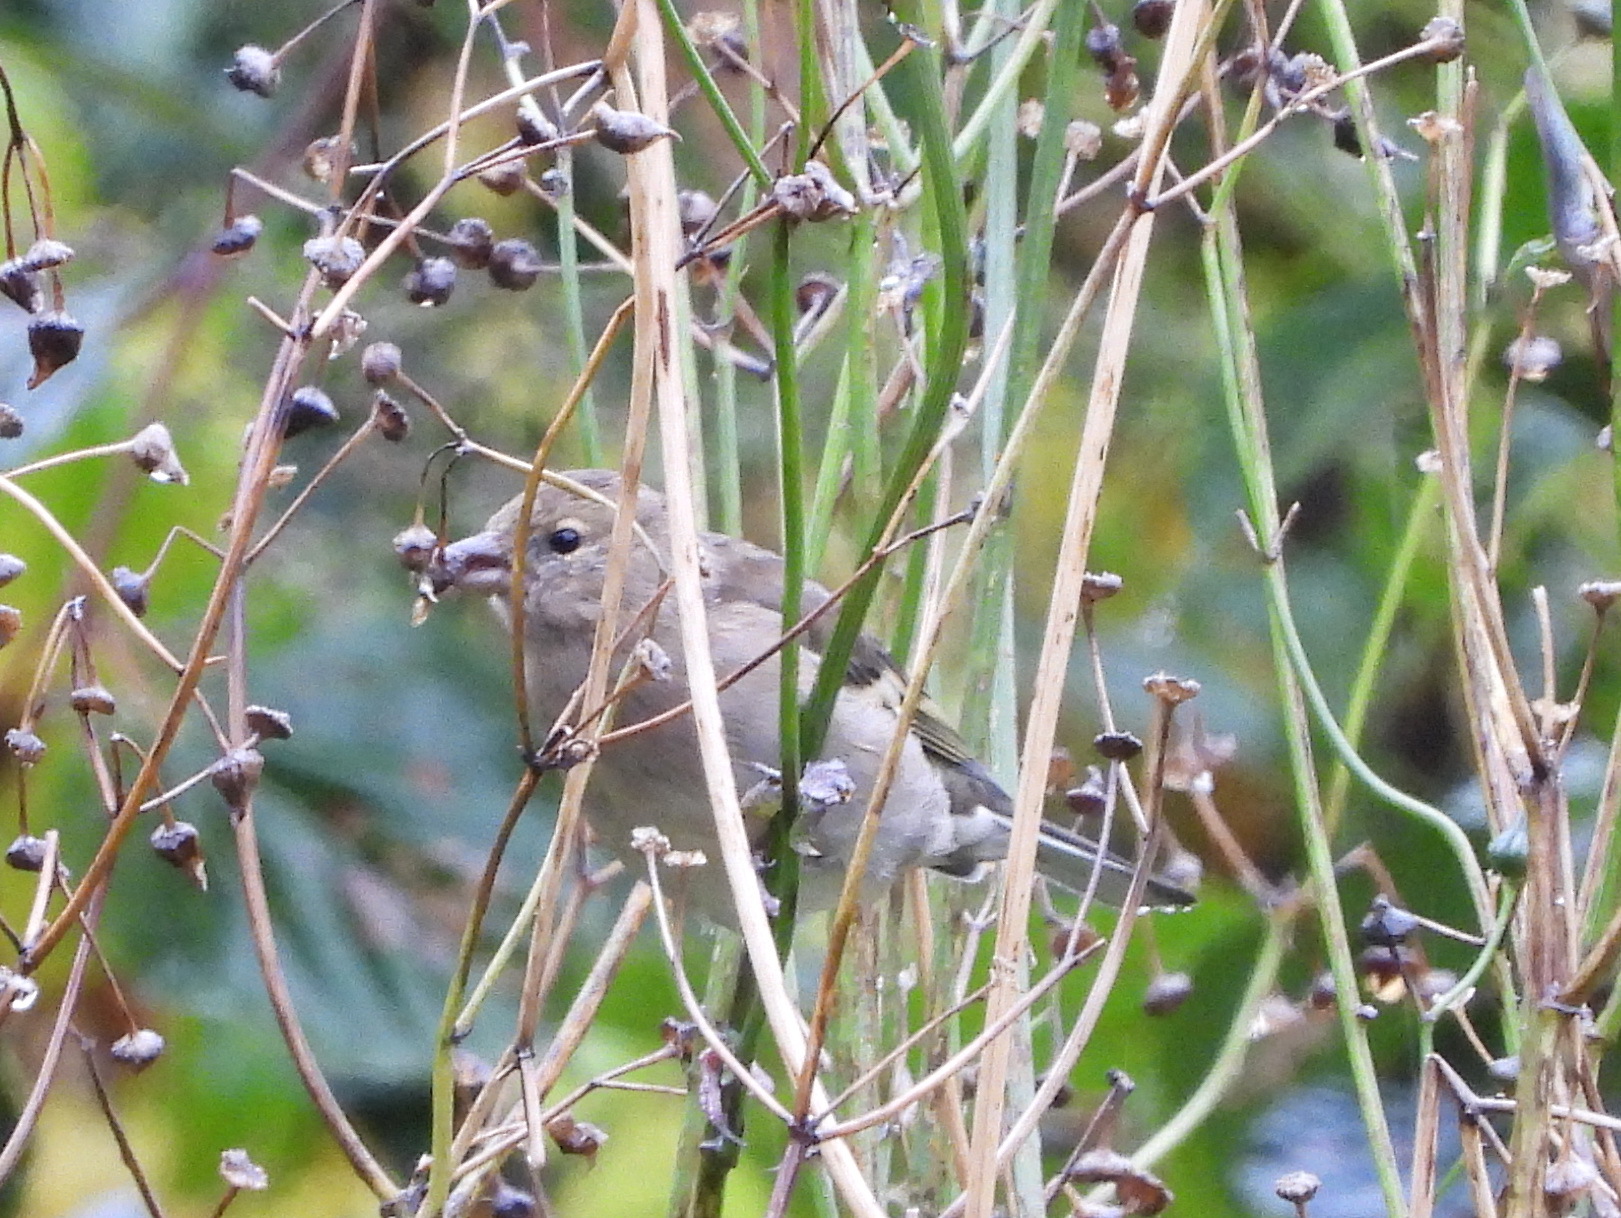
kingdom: Animalia
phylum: Chordata
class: Aves
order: Passeriformes
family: Fringillidae
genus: Fringilla
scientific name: Fringilla coelebs
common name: Common chaffinch
